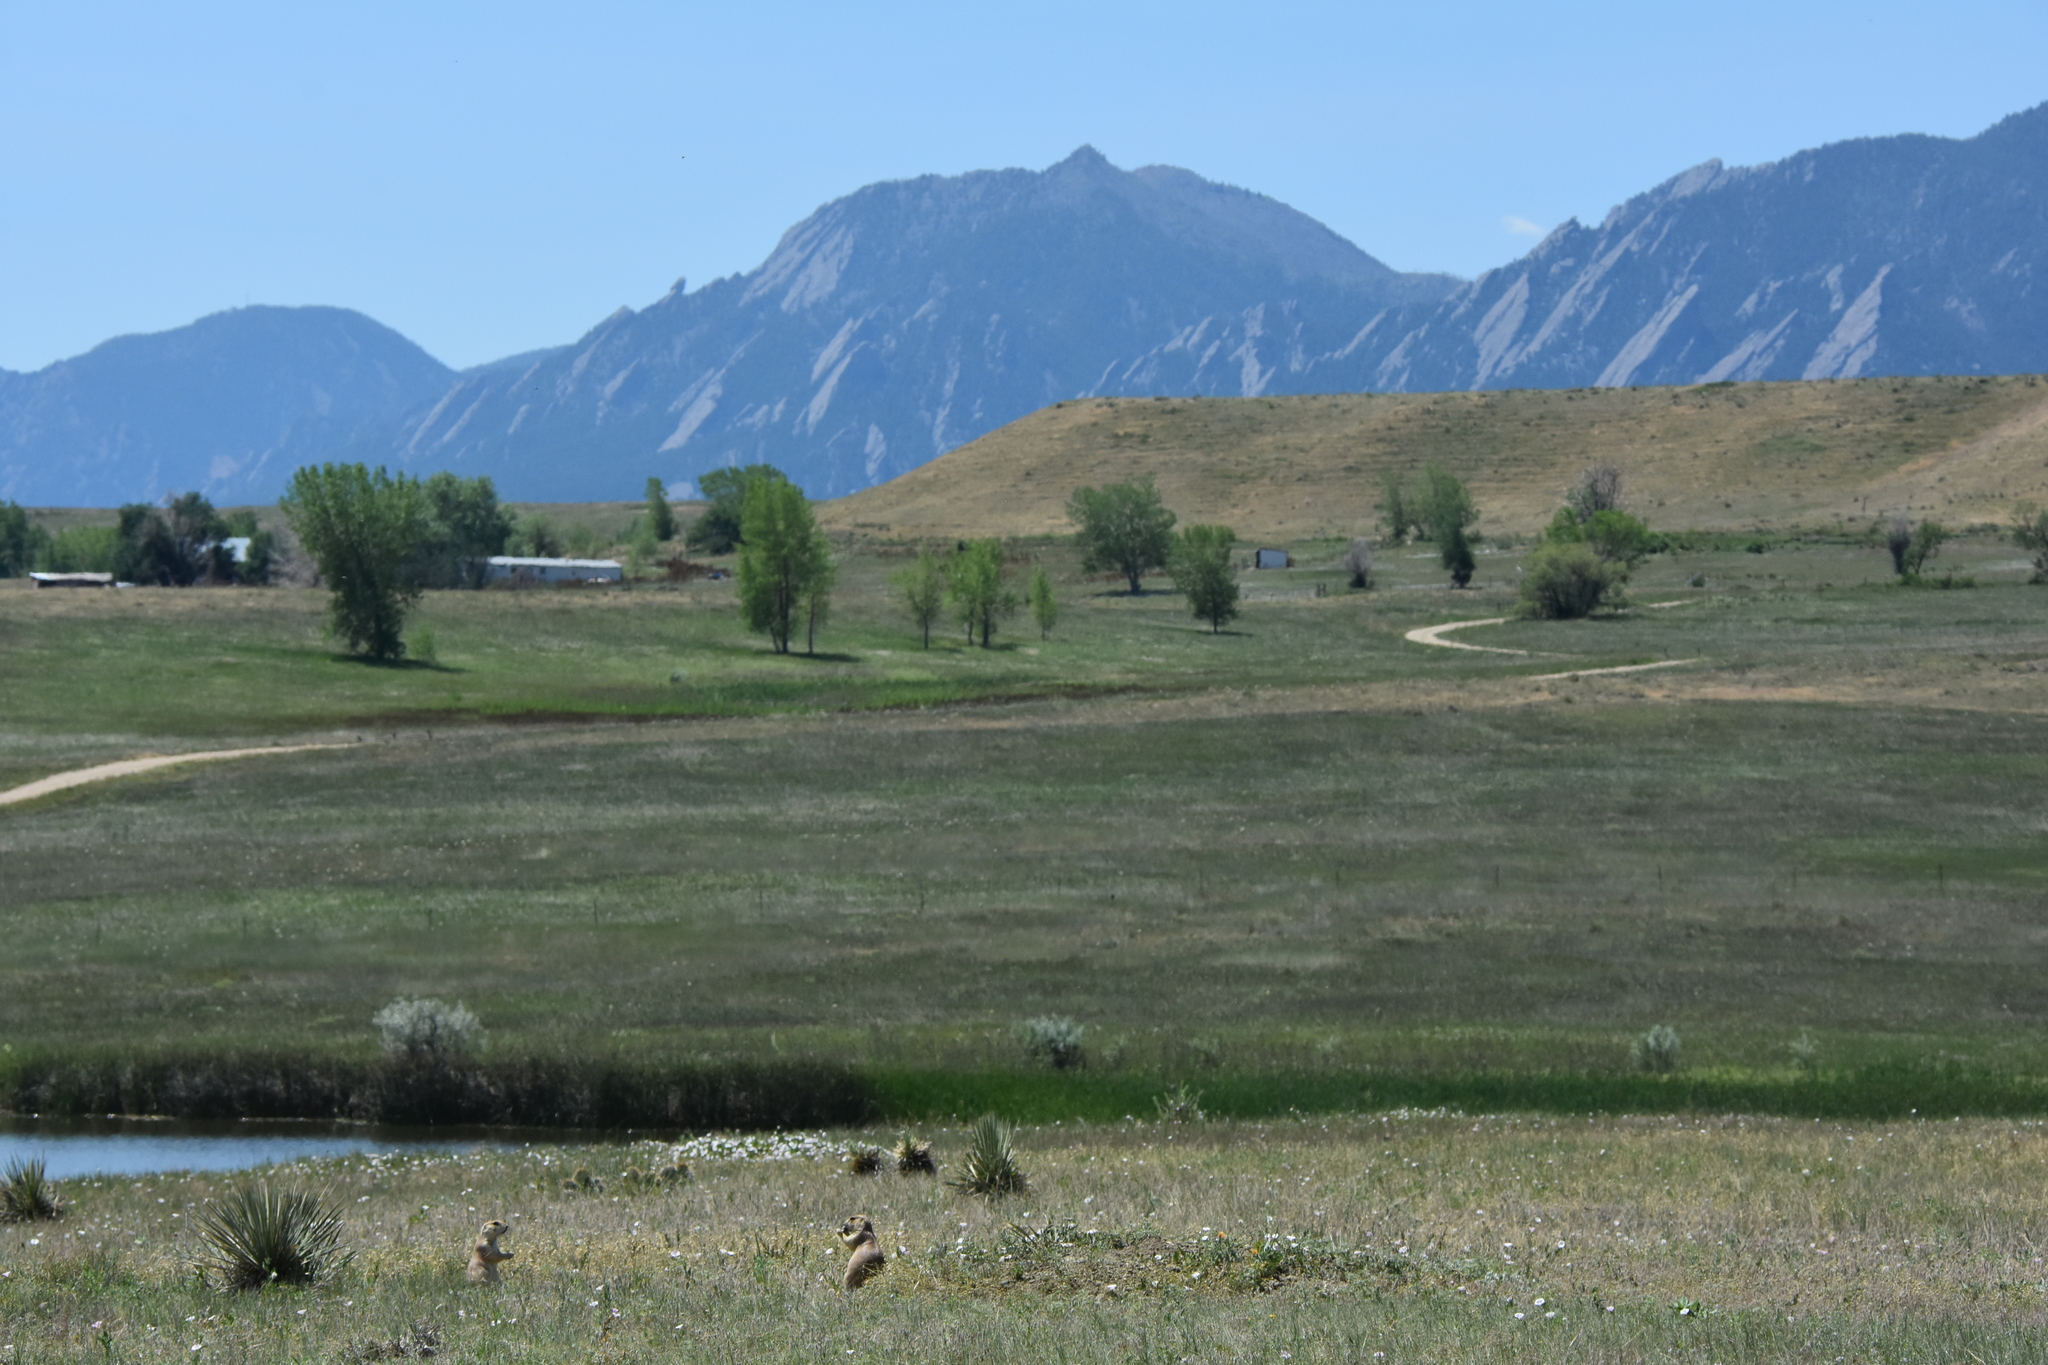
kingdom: Animalia
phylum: Chordata
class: Mammalia
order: Rodentia
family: Sciuridae
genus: Cynomys
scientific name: Cynomys ludovicianus
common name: Black-tailed prairie dog
